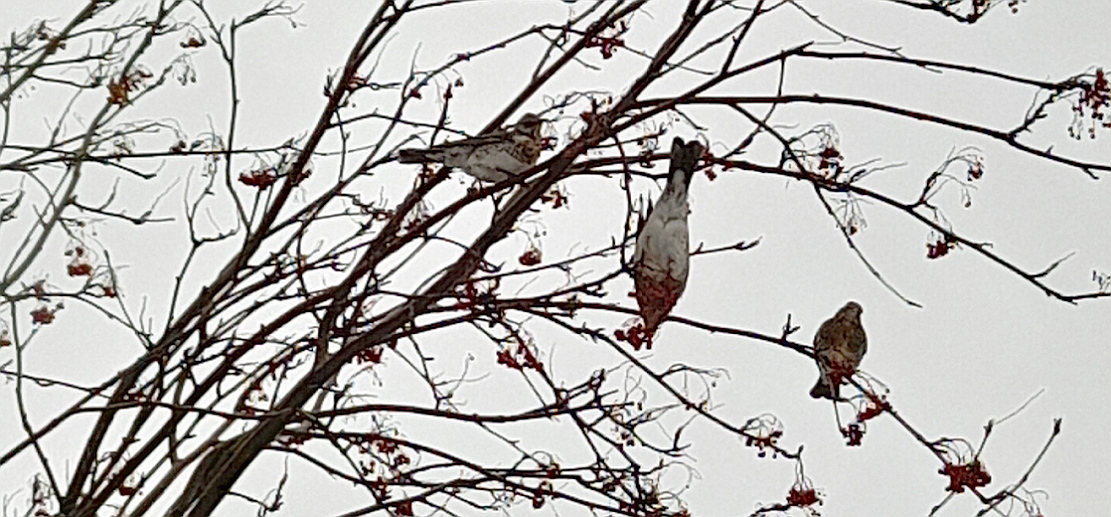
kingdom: Animalia
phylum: Chordata
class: Aves
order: Passeriformes
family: Turdidae
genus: Turdus
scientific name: Turdus pilaris
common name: Fieldfare
